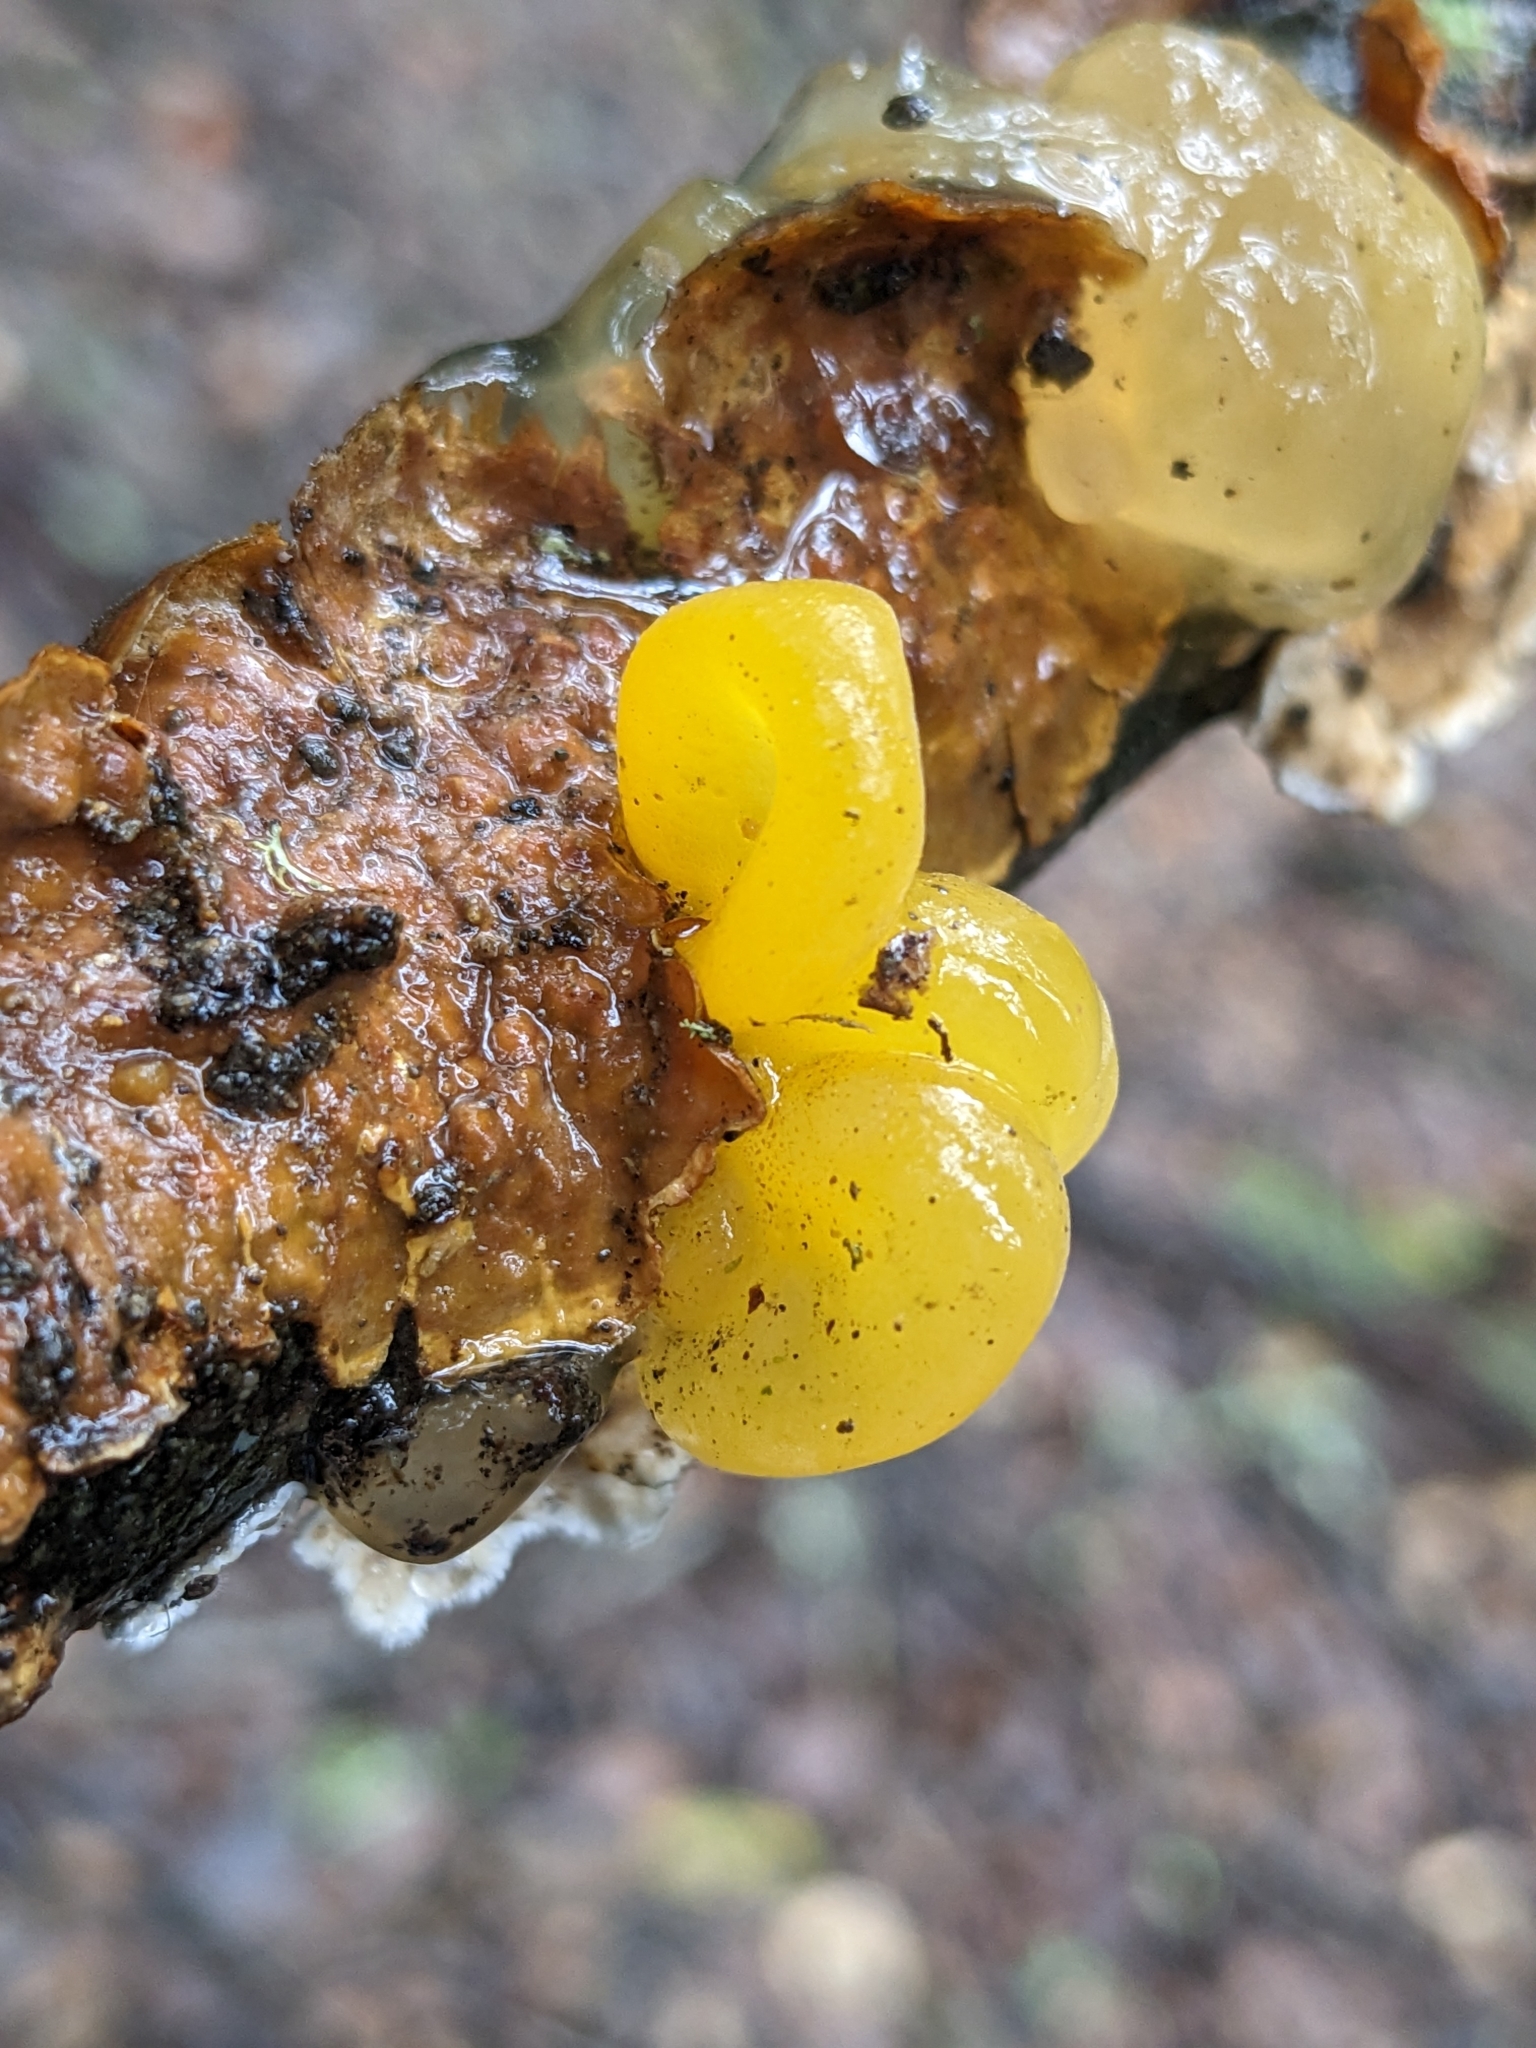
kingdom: Fungi
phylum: Basidiomycota
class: Tremellomycetes
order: Tremellales
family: Naemateliaceae
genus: Naematelia
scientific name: Naematelia aurantia
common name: Golden ear
